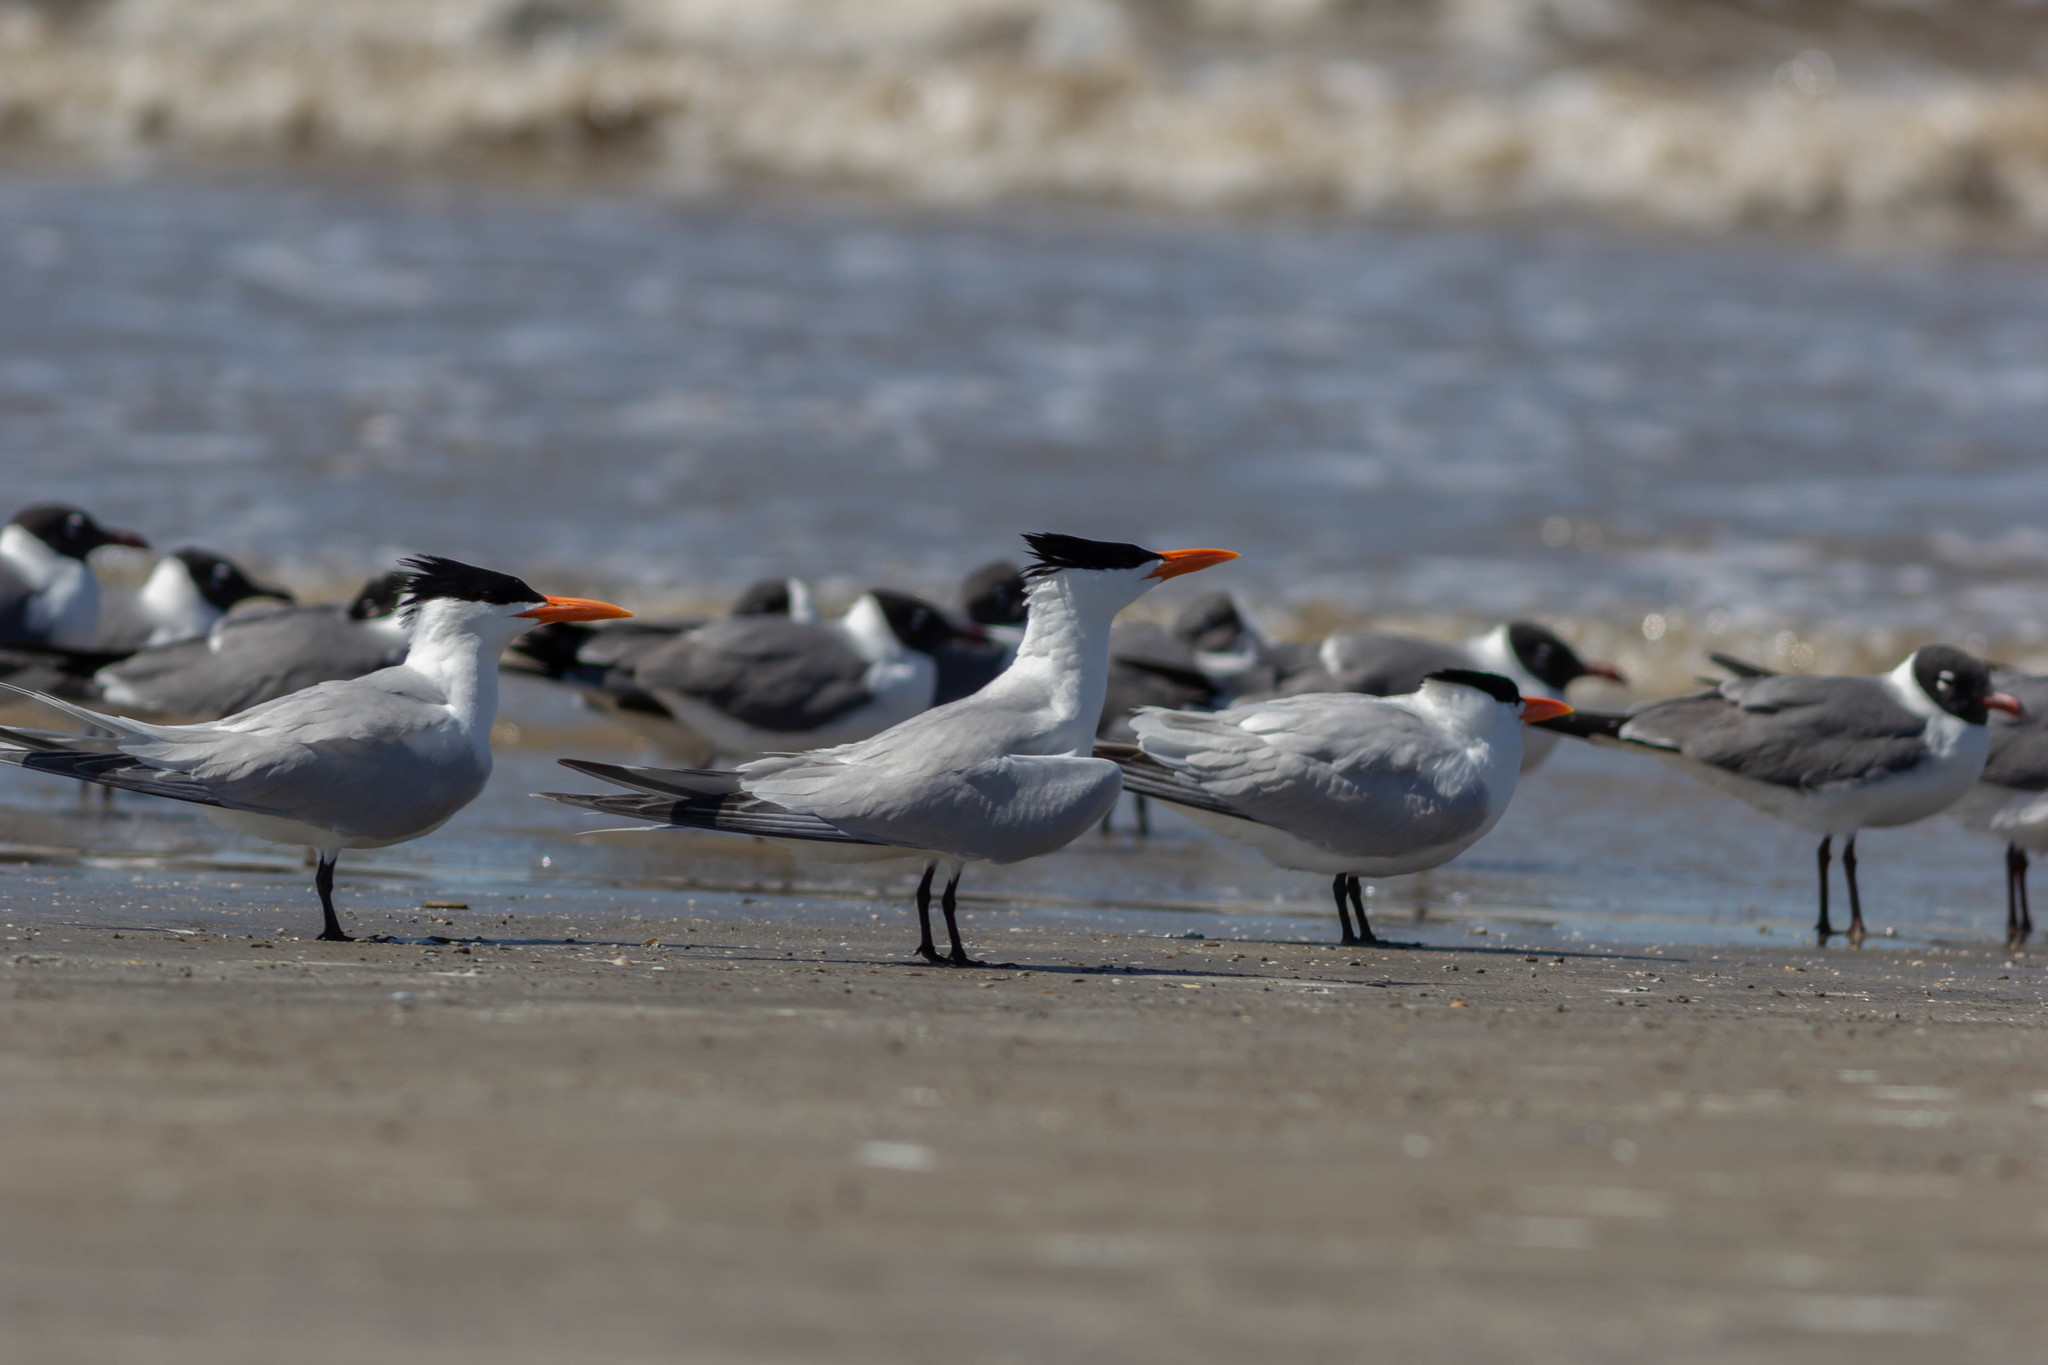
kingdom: Animalia
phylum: Chordata
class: Aves
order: Charadriiformes
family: Laridae
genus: Thalasseus
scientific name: Thalasseus maximus
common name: Royal tern
